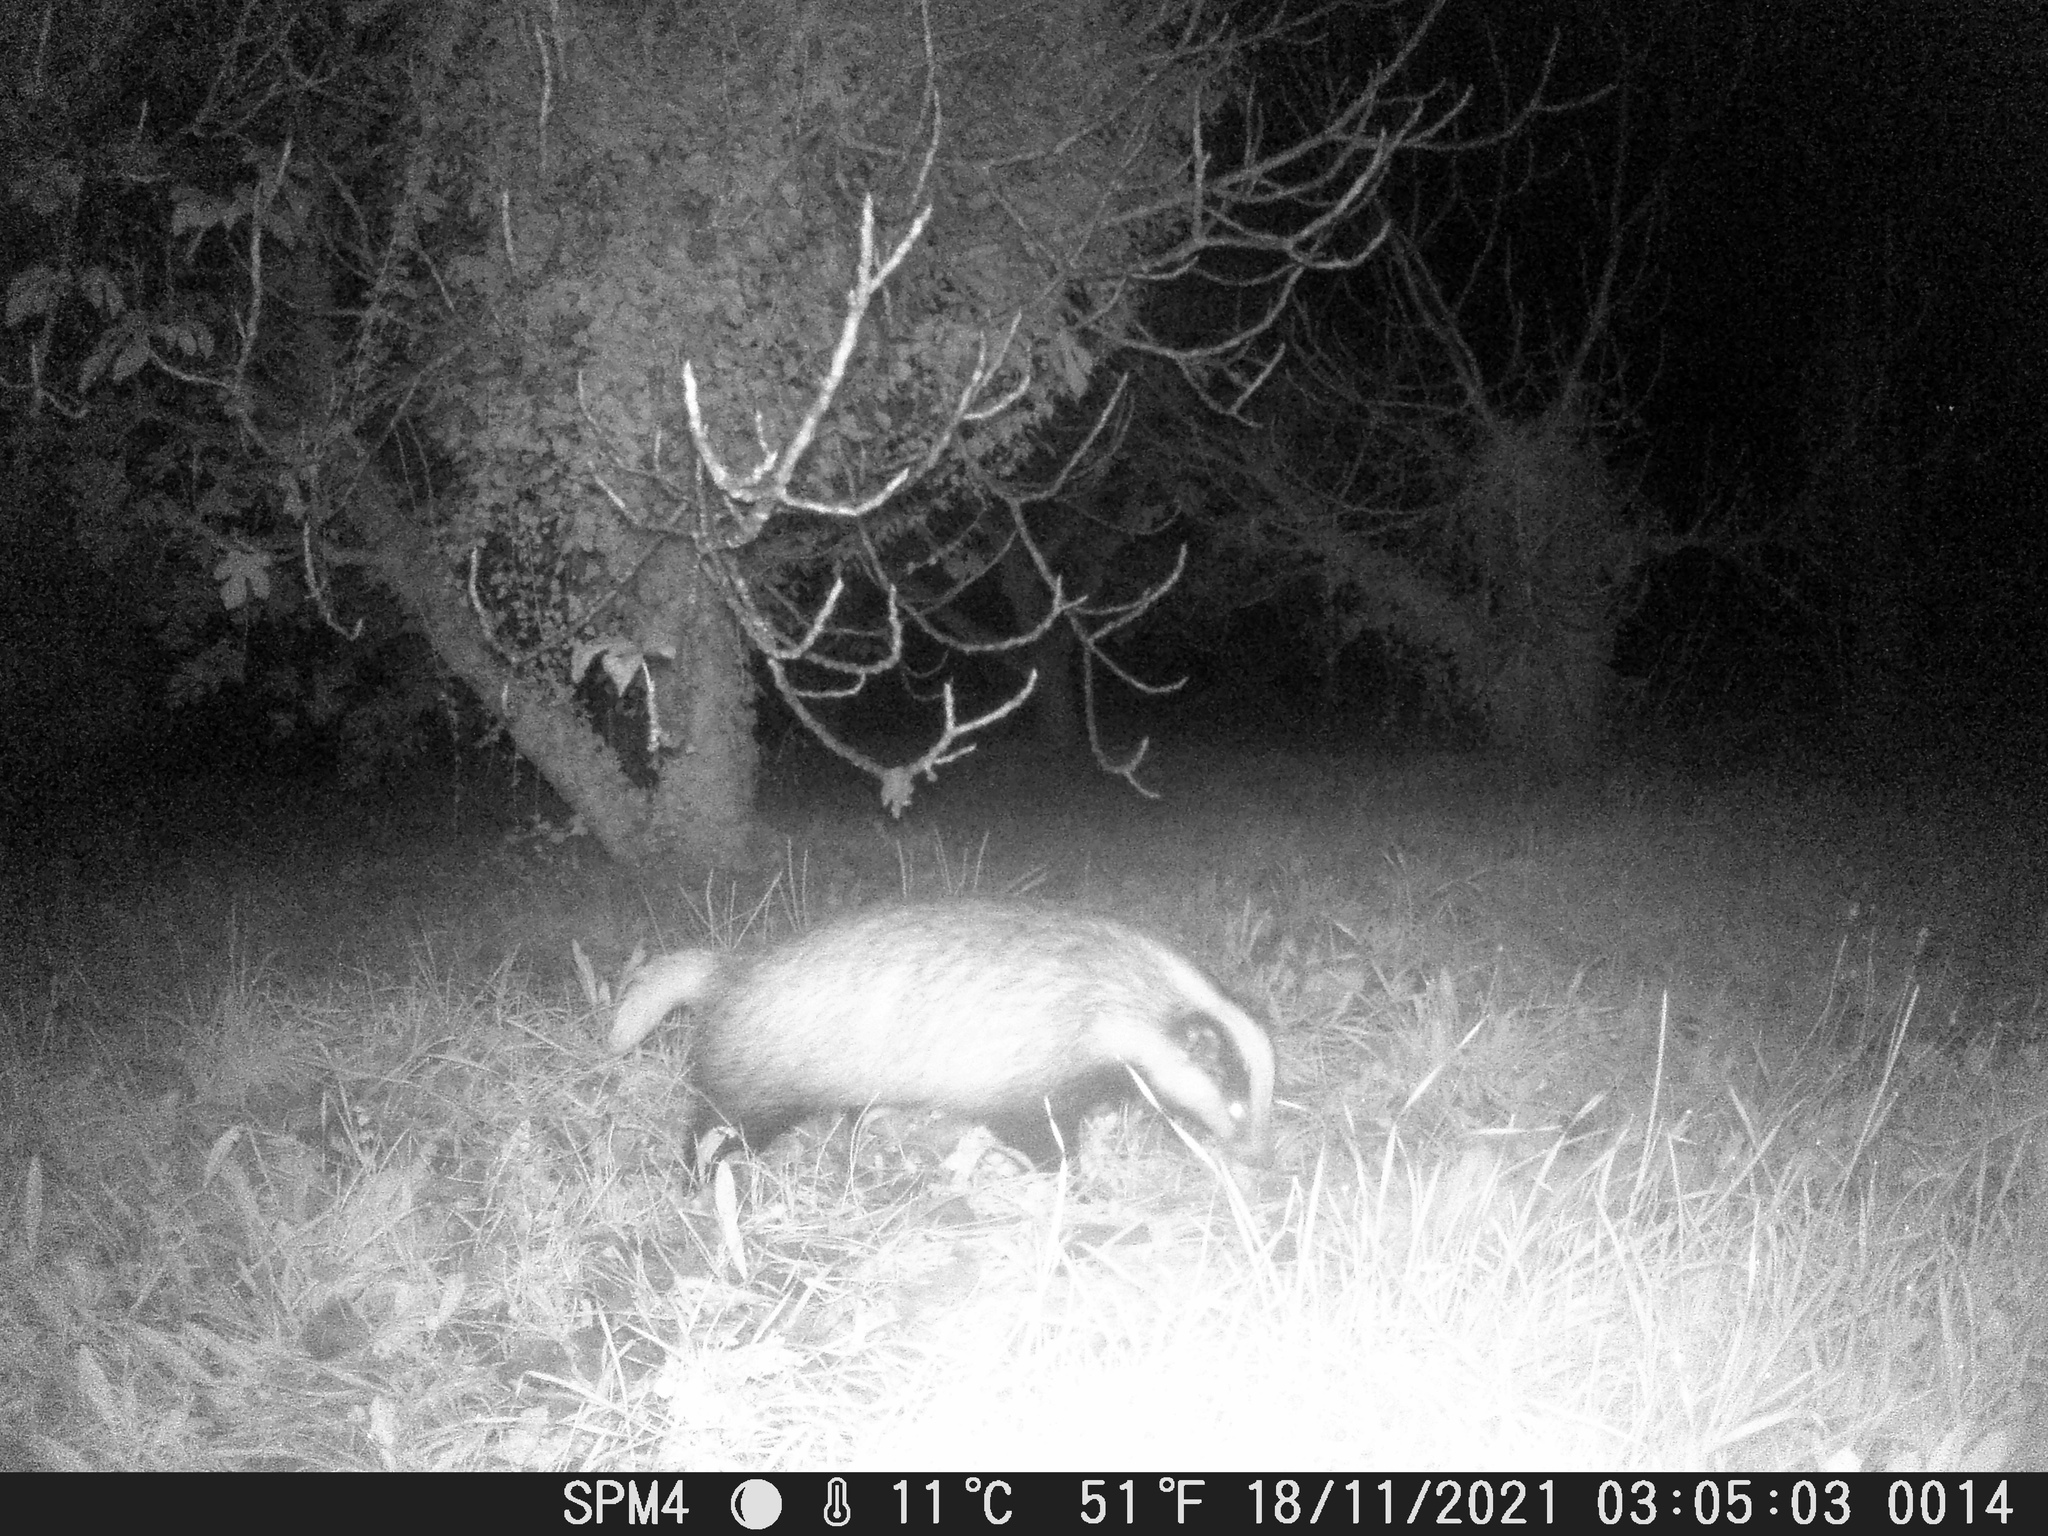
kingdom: Animalia
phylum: Chordata
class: Mammalia
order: Carnivora
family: Mustelidae
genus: Meles
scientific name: Meles meles
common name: Eurasian badger
